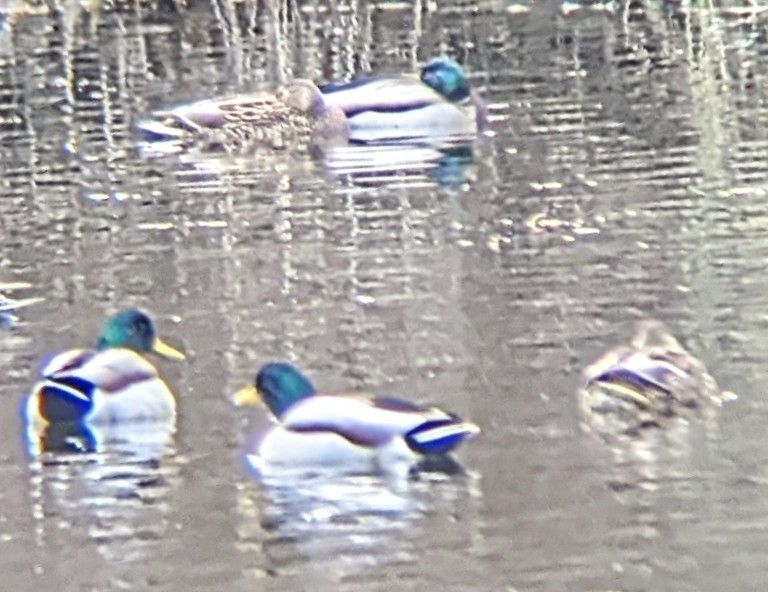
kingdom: Animalia
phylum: Chordata
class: Aves
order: Anseriformes
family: Anatidae
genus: Anas
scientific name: Anas platyrhynchos
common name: Mallard
